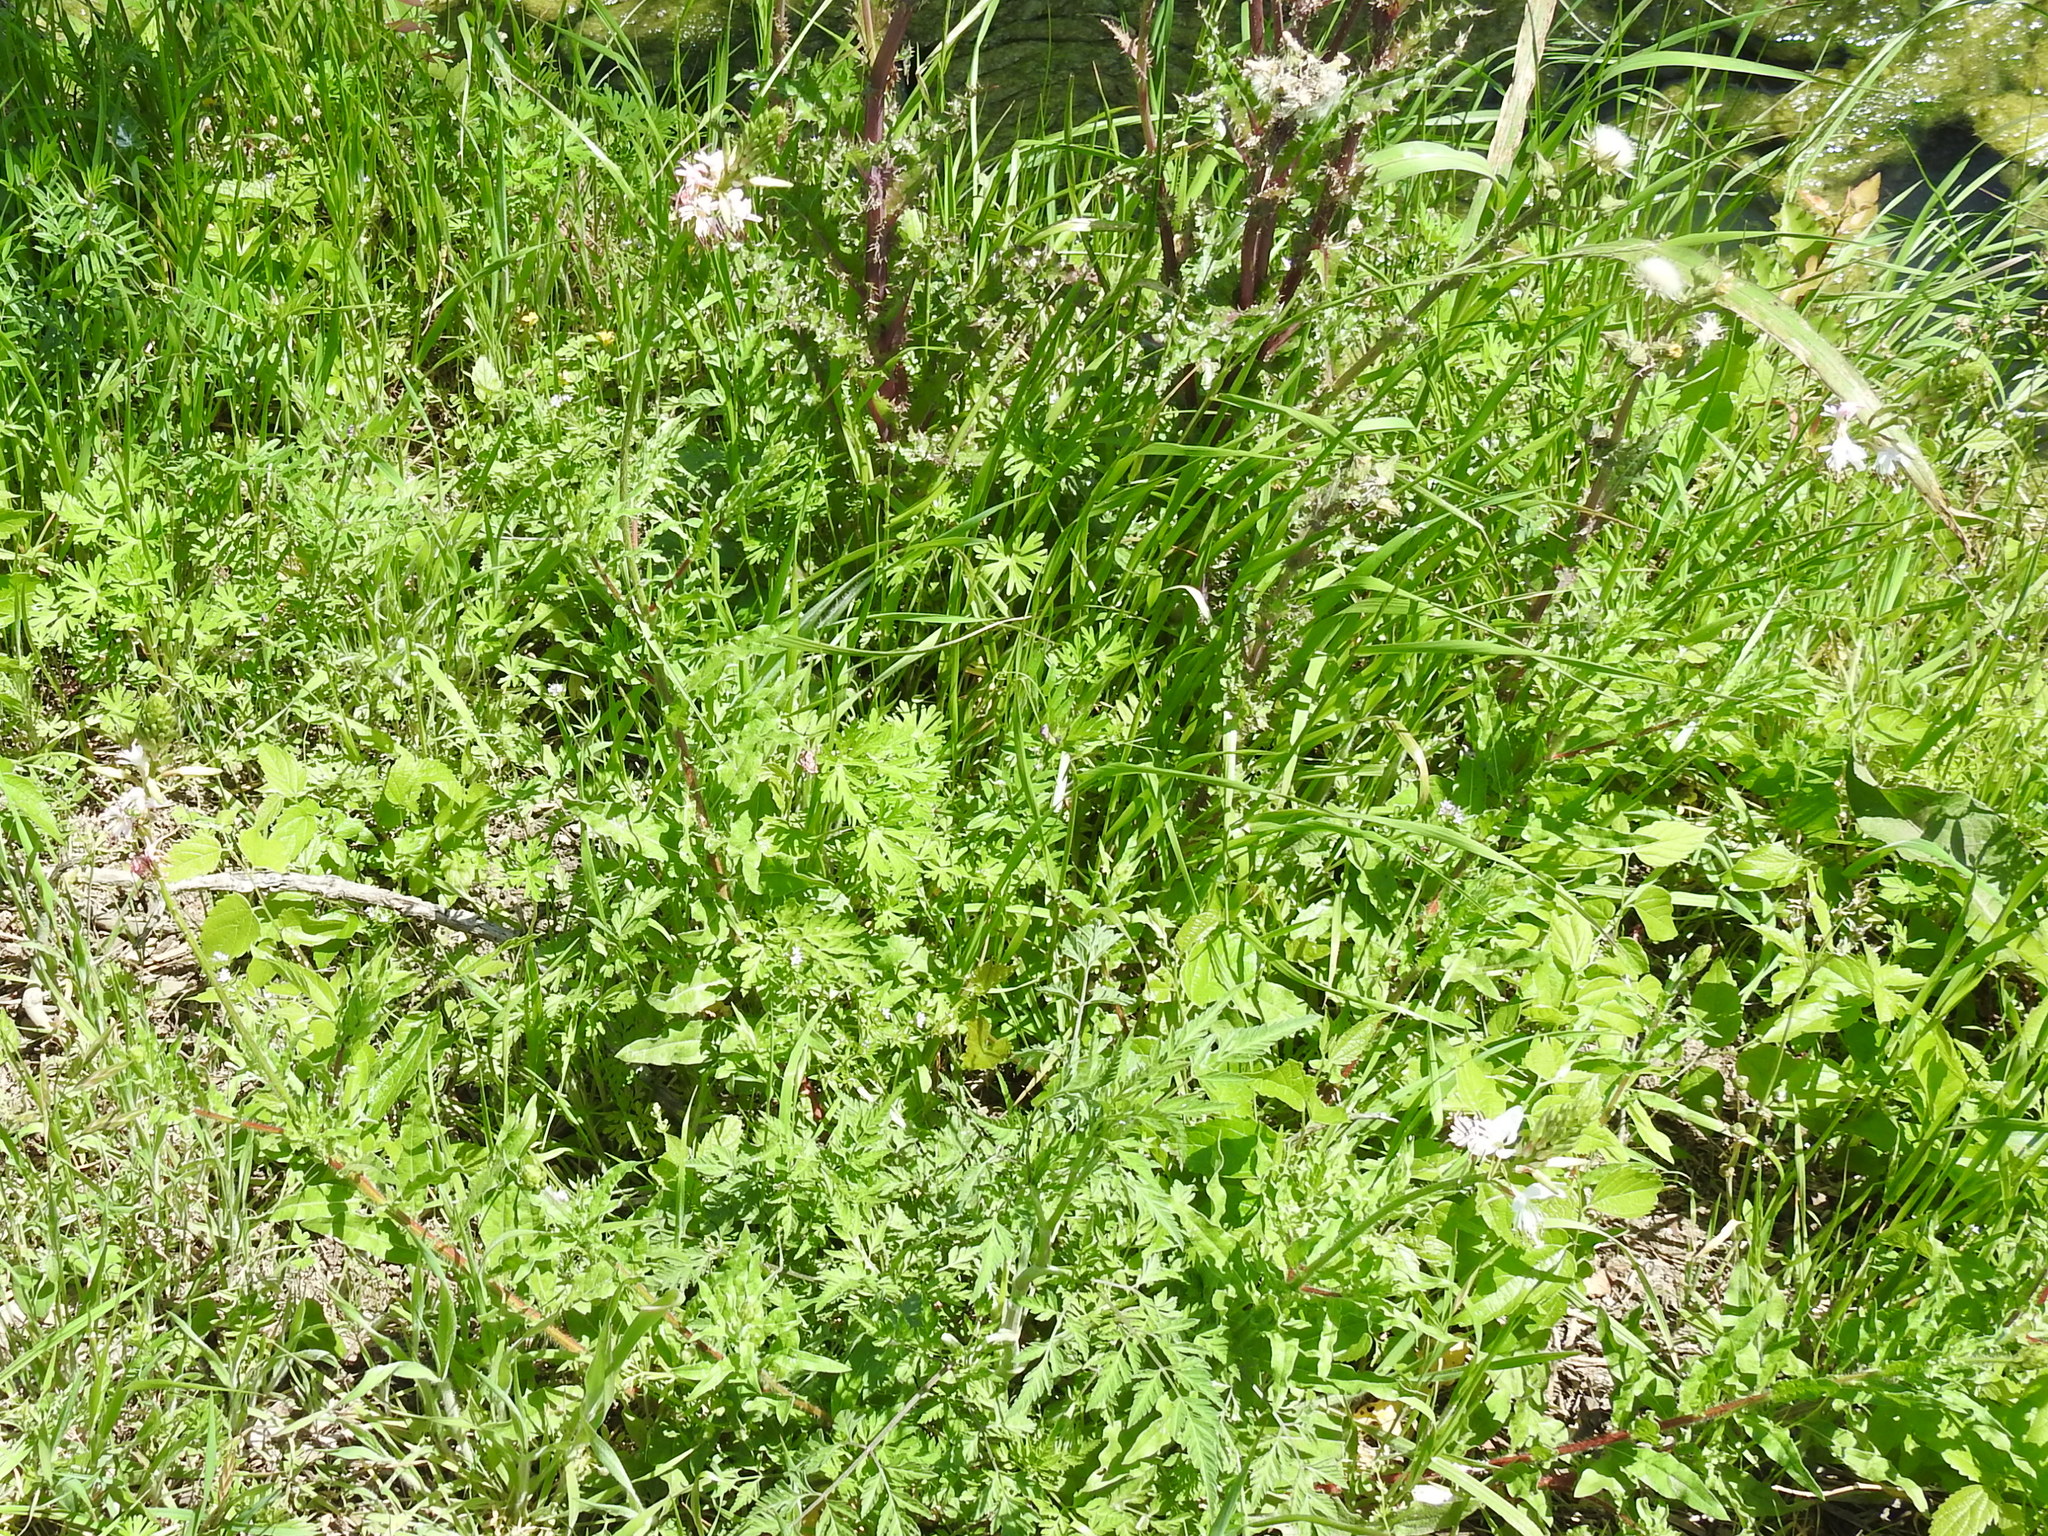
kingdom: Plantae
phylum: Tracheophyta
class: Magnoliopsida
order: Myrtales
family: Onagraceae
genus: Oenothera
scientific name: Oenothera suffulta
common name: Kisses
